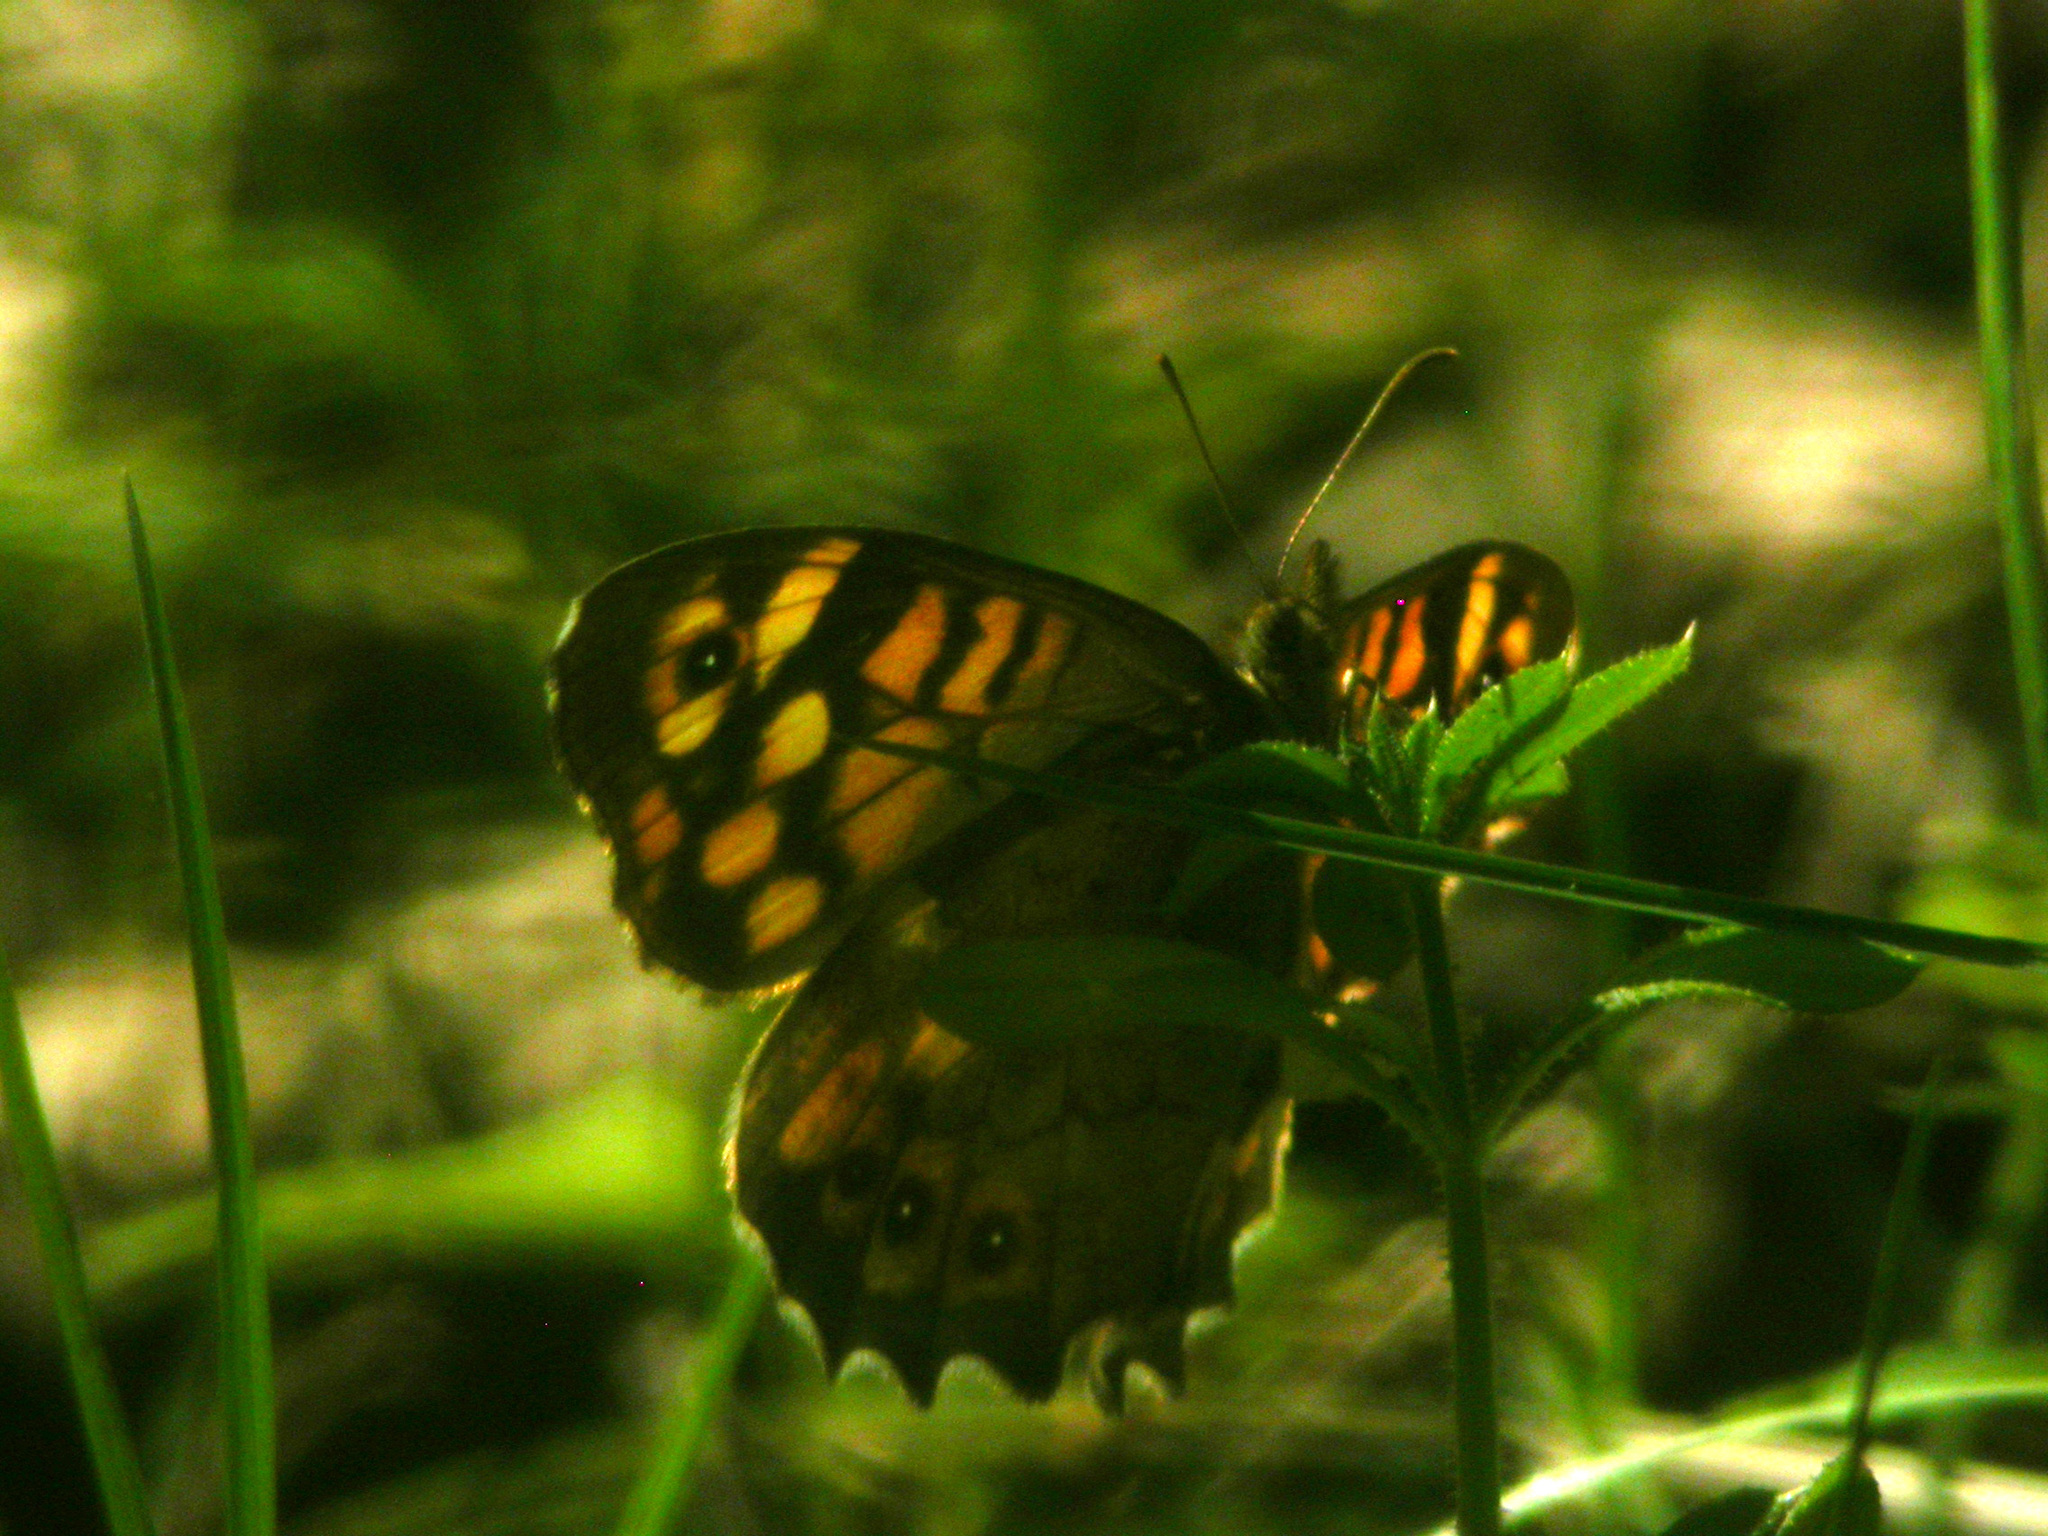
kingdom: Animalia
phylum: Arthropoda
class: Insecta
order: Lepidoptera
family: Nymphalidae
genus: Pararge
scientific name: Pararge aegeria
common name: Speckled wood
